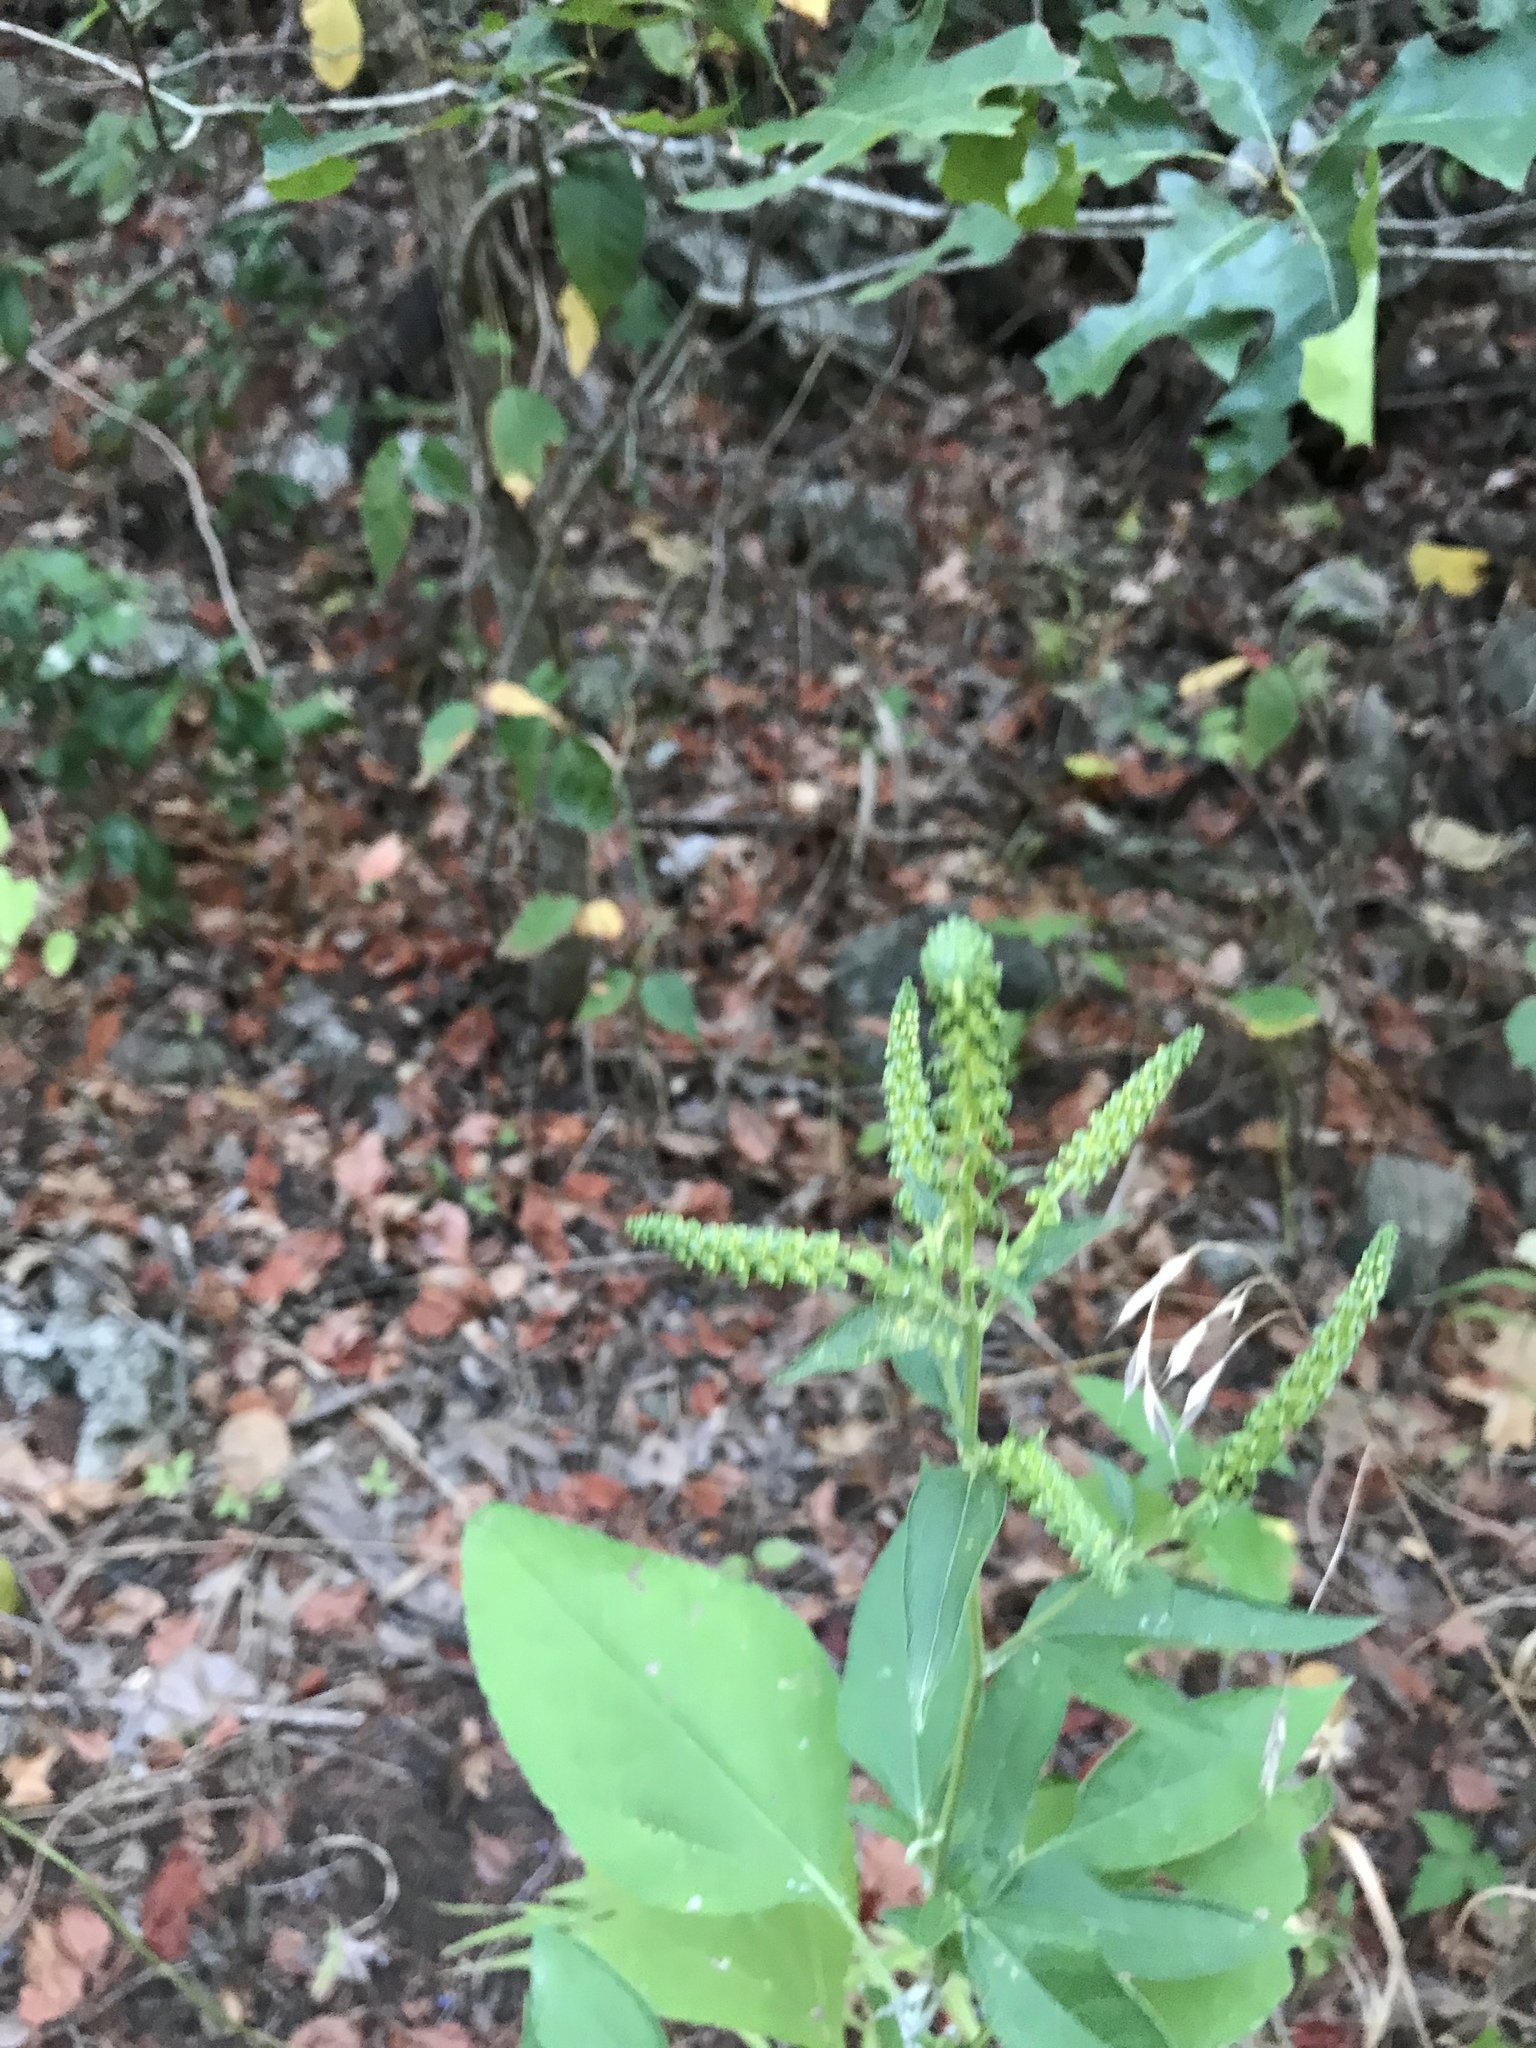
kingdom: Plantae
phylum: Tracheophyta
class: Magnoliopsida
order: Asterales
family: Asteraceae
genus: Ambrosia
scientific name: Ambrosia trifida
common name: Giant ragweed
